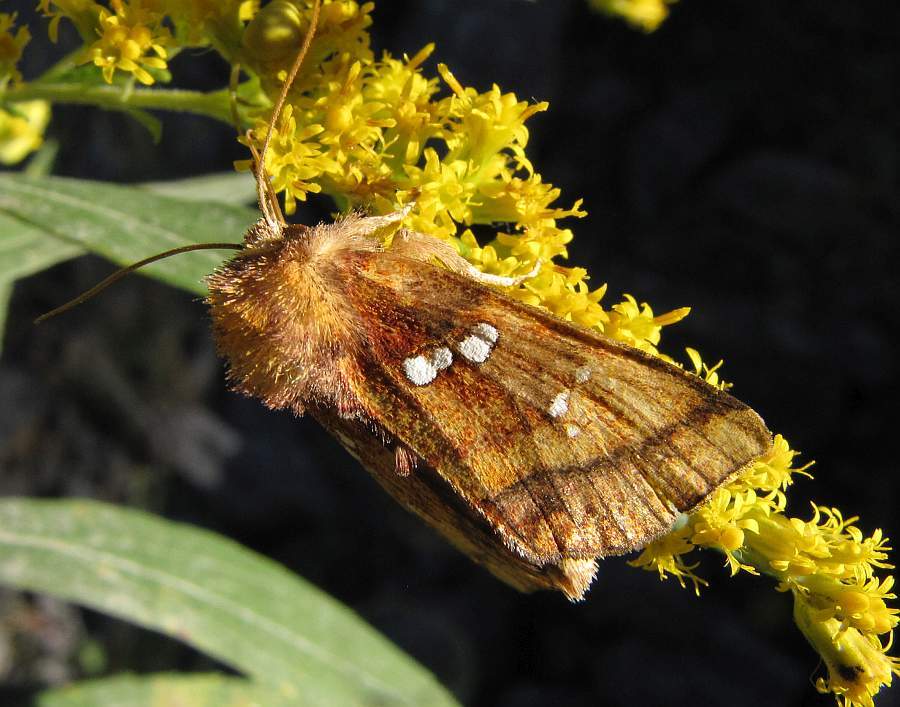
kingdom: Animalia
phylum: Arthropoda
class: Insecta
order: Lepidoptera
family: Noctuidae
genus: Papaipema
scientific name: Papaipema pterisii
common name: Bracken borer moth
